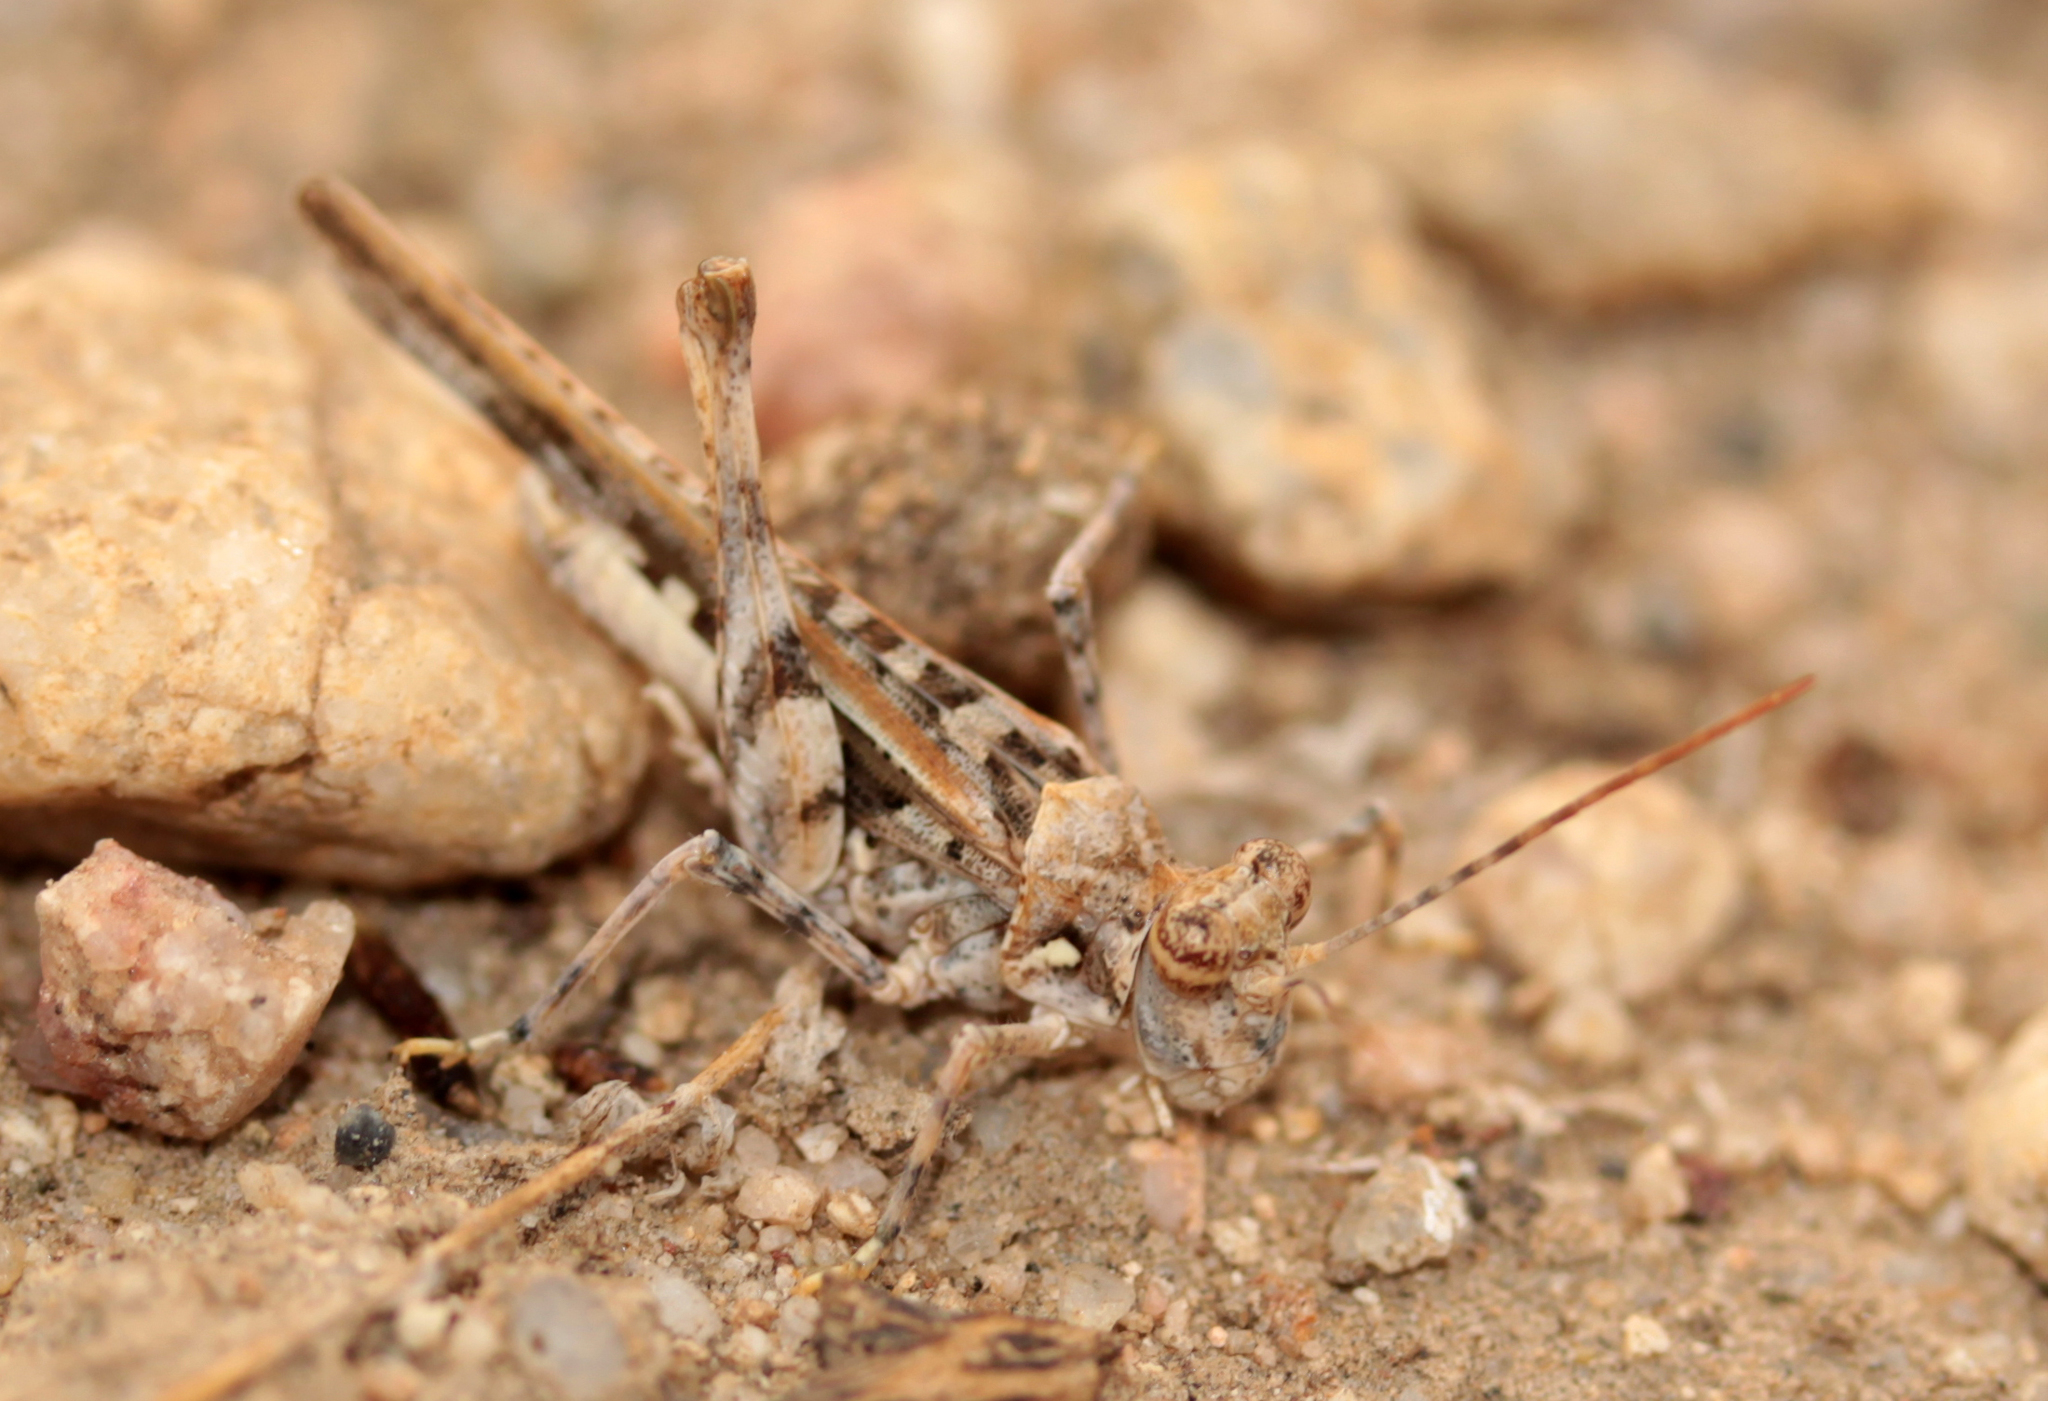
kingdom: Animalia
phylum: Arthropoda
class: Insecta
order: Orthoptera
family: Acrididae
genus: Derotmema
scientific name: Derotmema saussureanum
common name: Saussure's desert grasshopper
